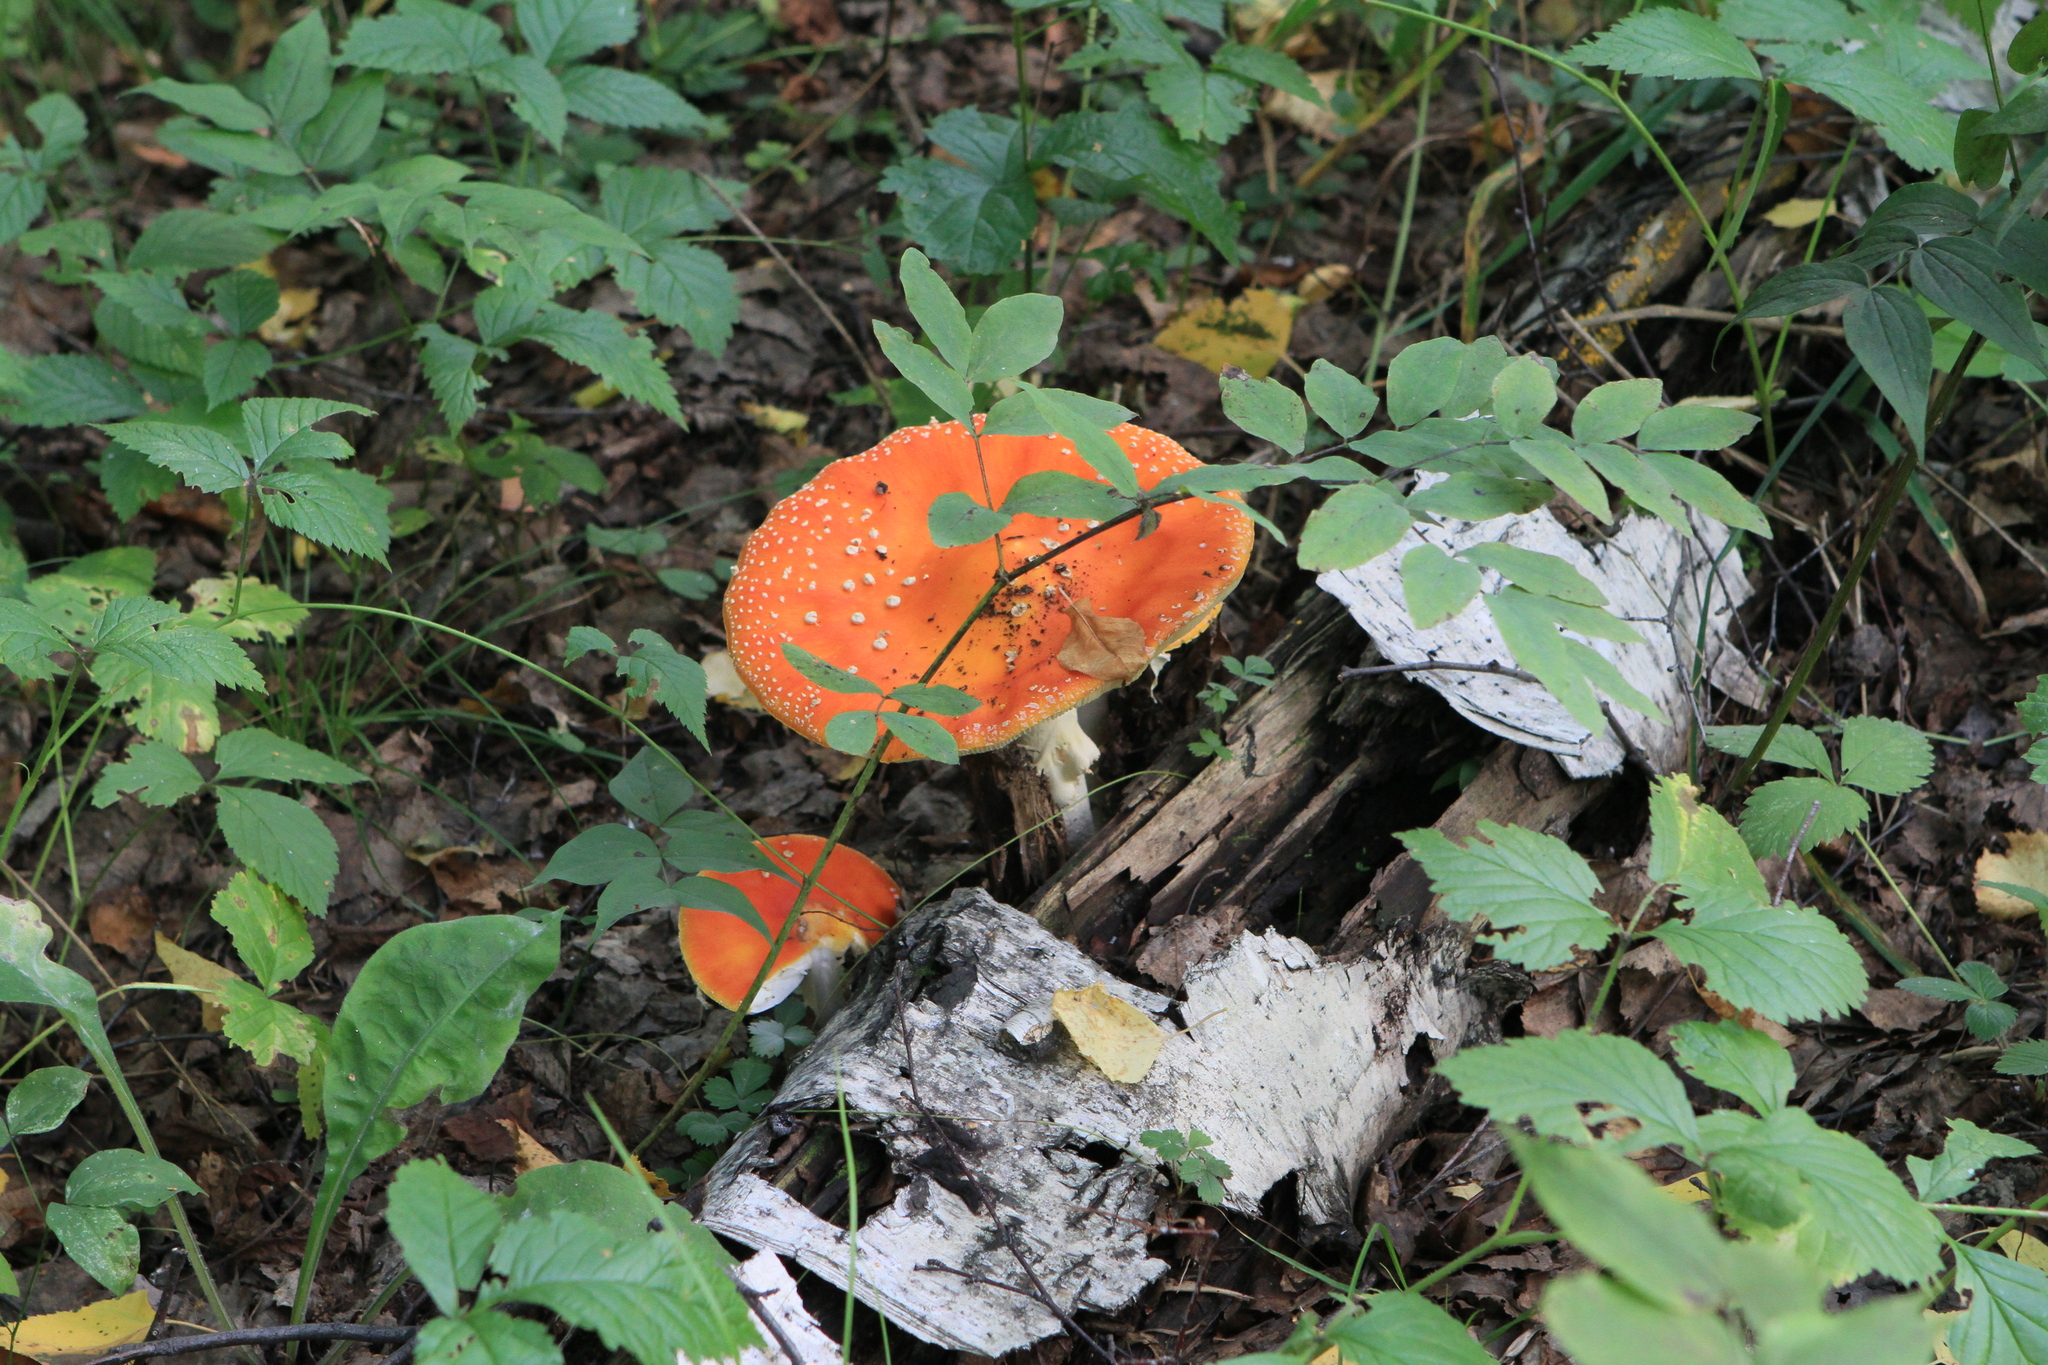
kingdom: Fungi
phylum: Basidiomycota
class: Agaricomycetes
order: Agaricales
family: Amanitaceae
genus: Amanita
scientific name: Amanita muscaria
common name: Fly agaric
